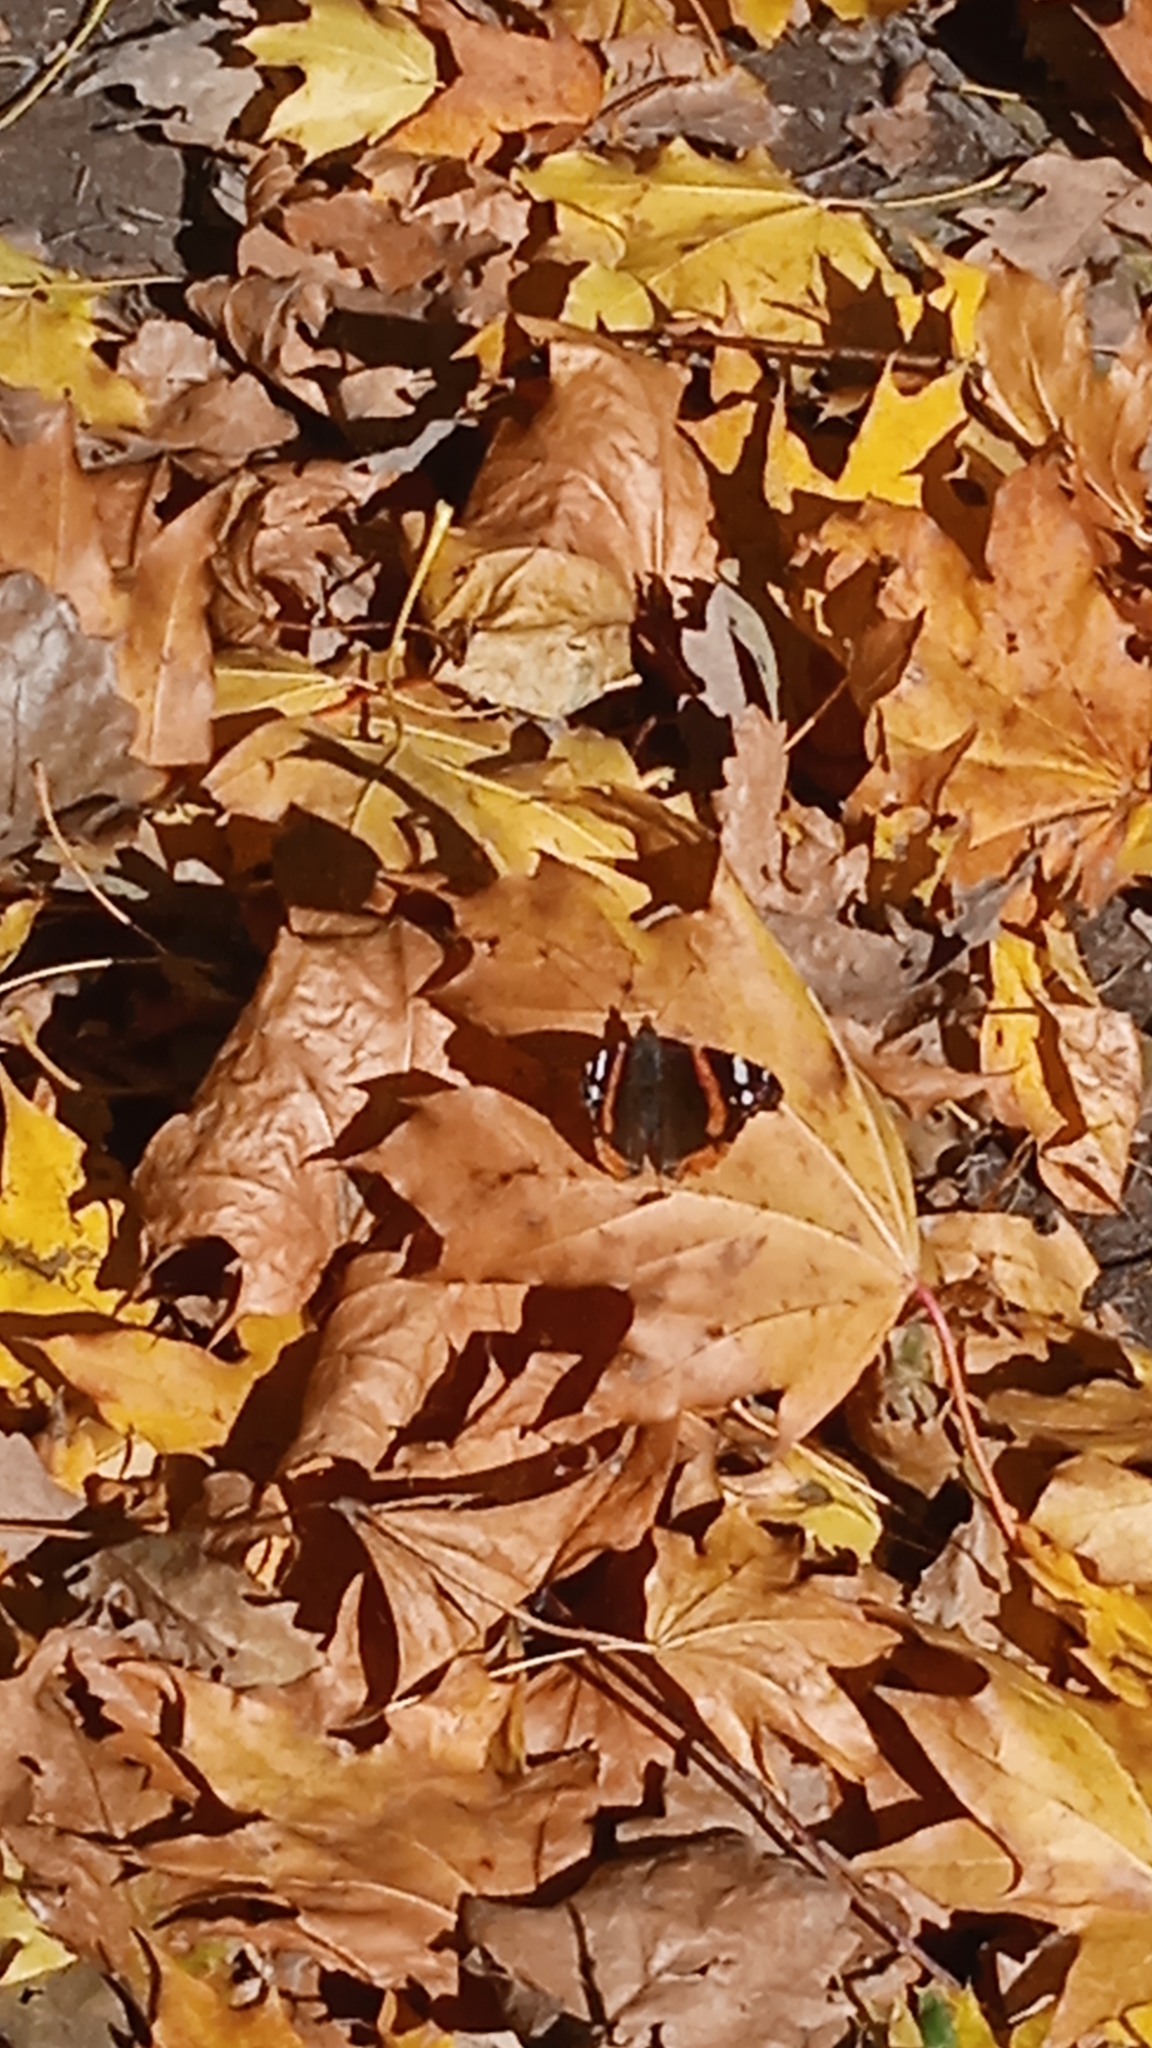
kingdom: Animalia
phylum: Arthropoda
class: Insecta
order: Lepidoptera
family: Nymphalidae
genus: Vanessa
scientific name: Vanessa atalanta
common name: Red admiral
